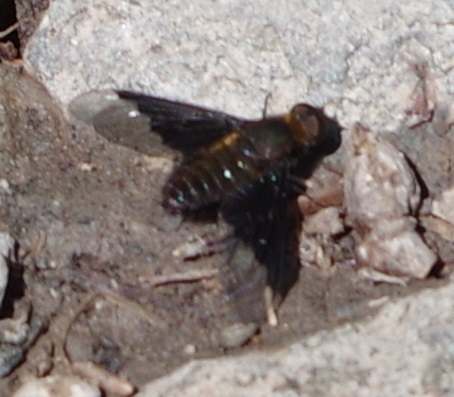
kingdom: Animalia
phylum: Arthropoda
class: Insecta
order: Diptera
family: Bombyliidae
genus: Hemipenthes
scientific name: Hemipenthes morio
